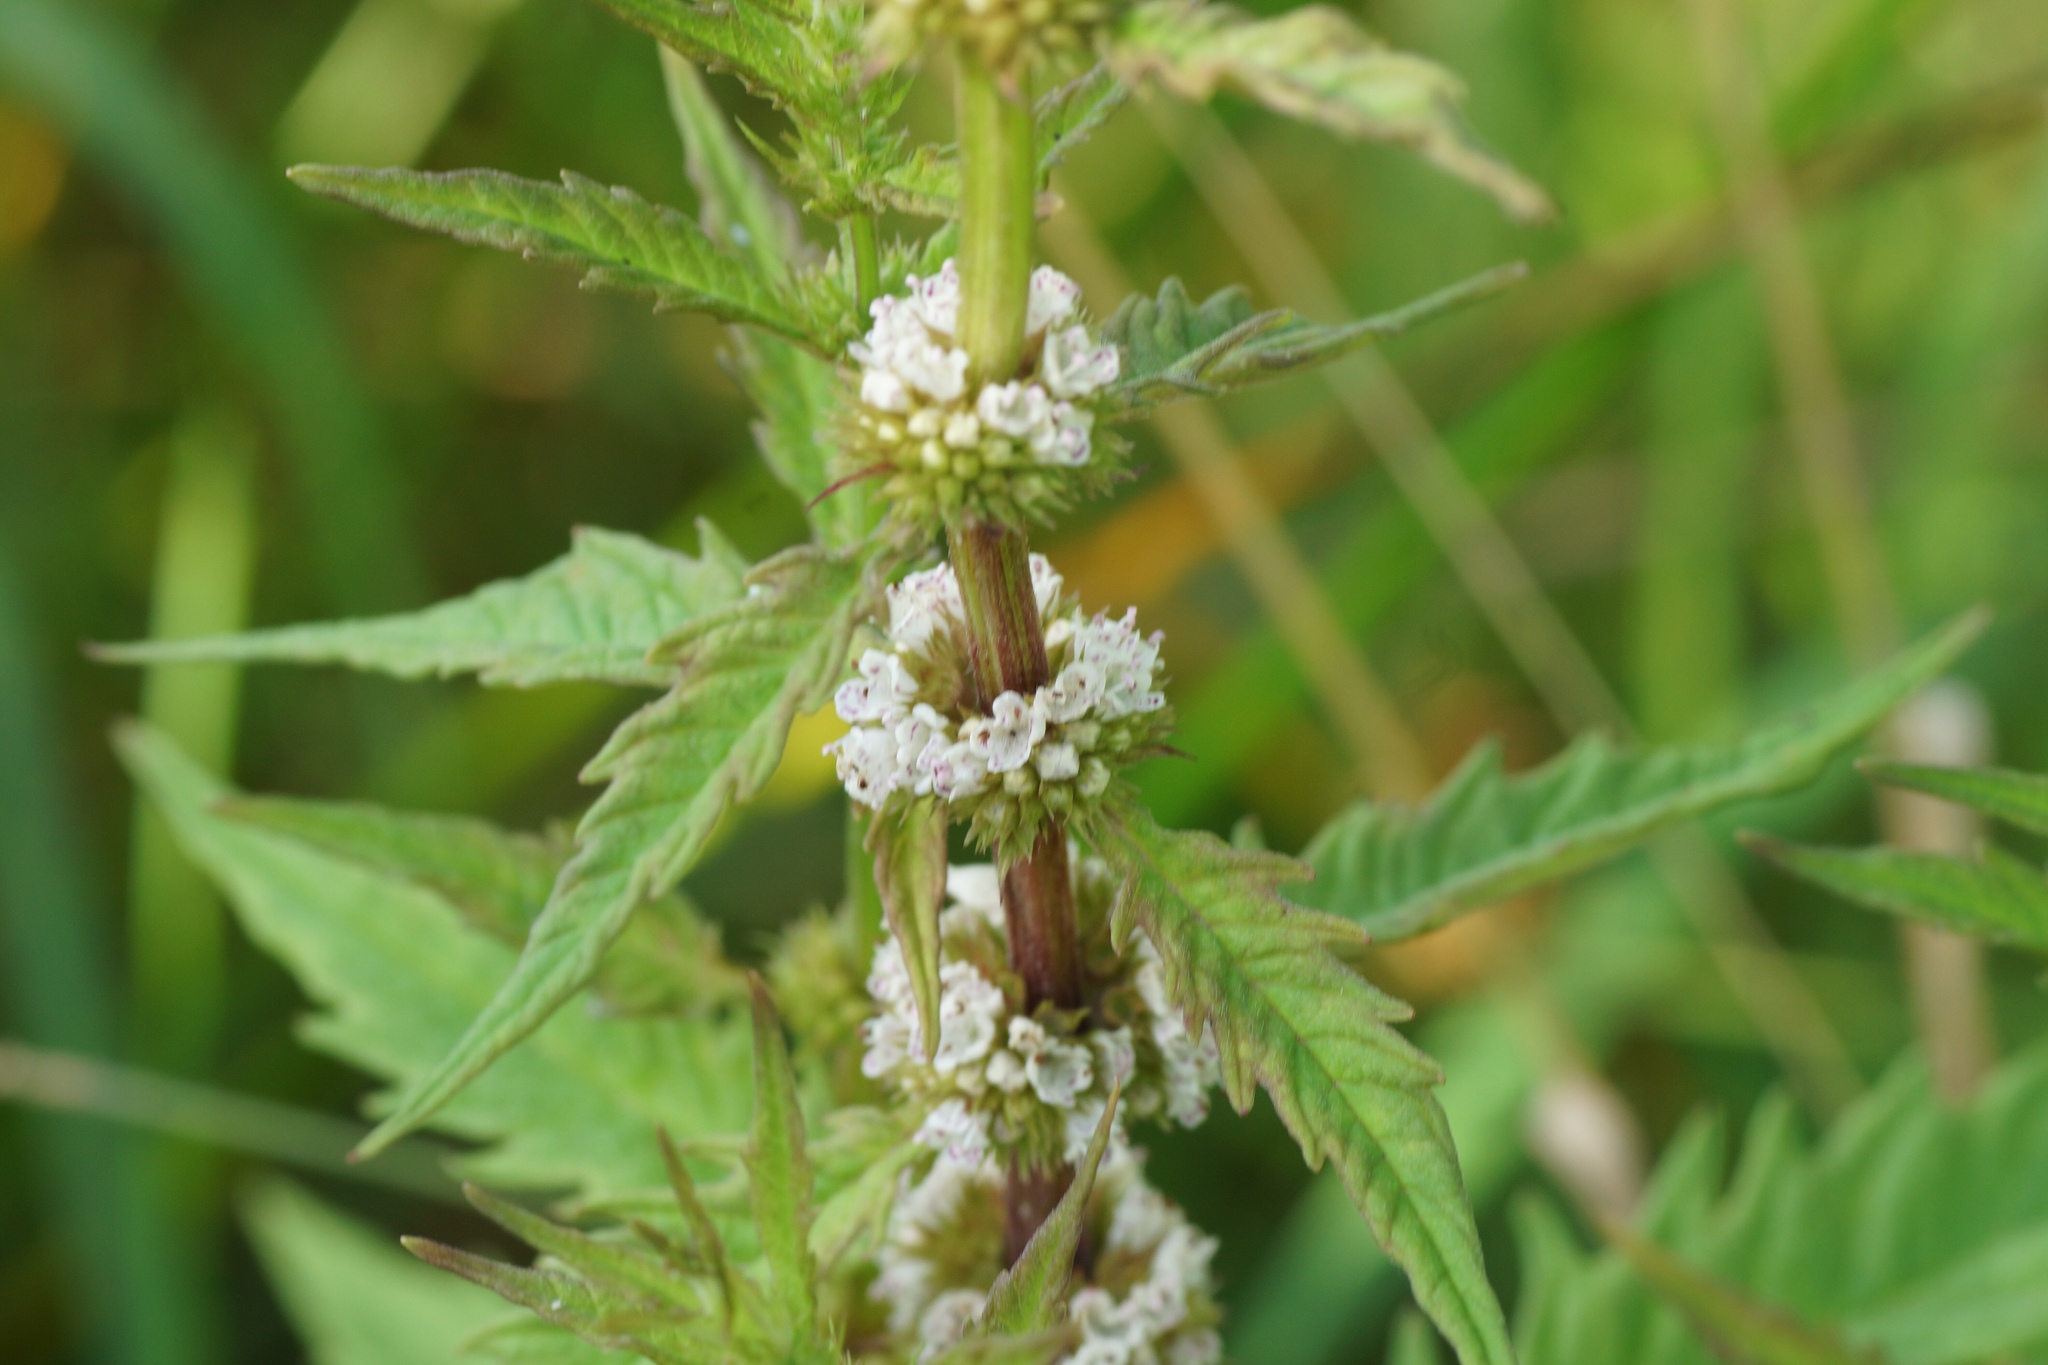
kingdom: Plantae
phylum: Tracheophyta
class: Magnoliopsida
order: Lamiales
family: Lamiaceae
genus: Lycopus
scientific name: Lycopus europaeus
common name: European bugleweed
